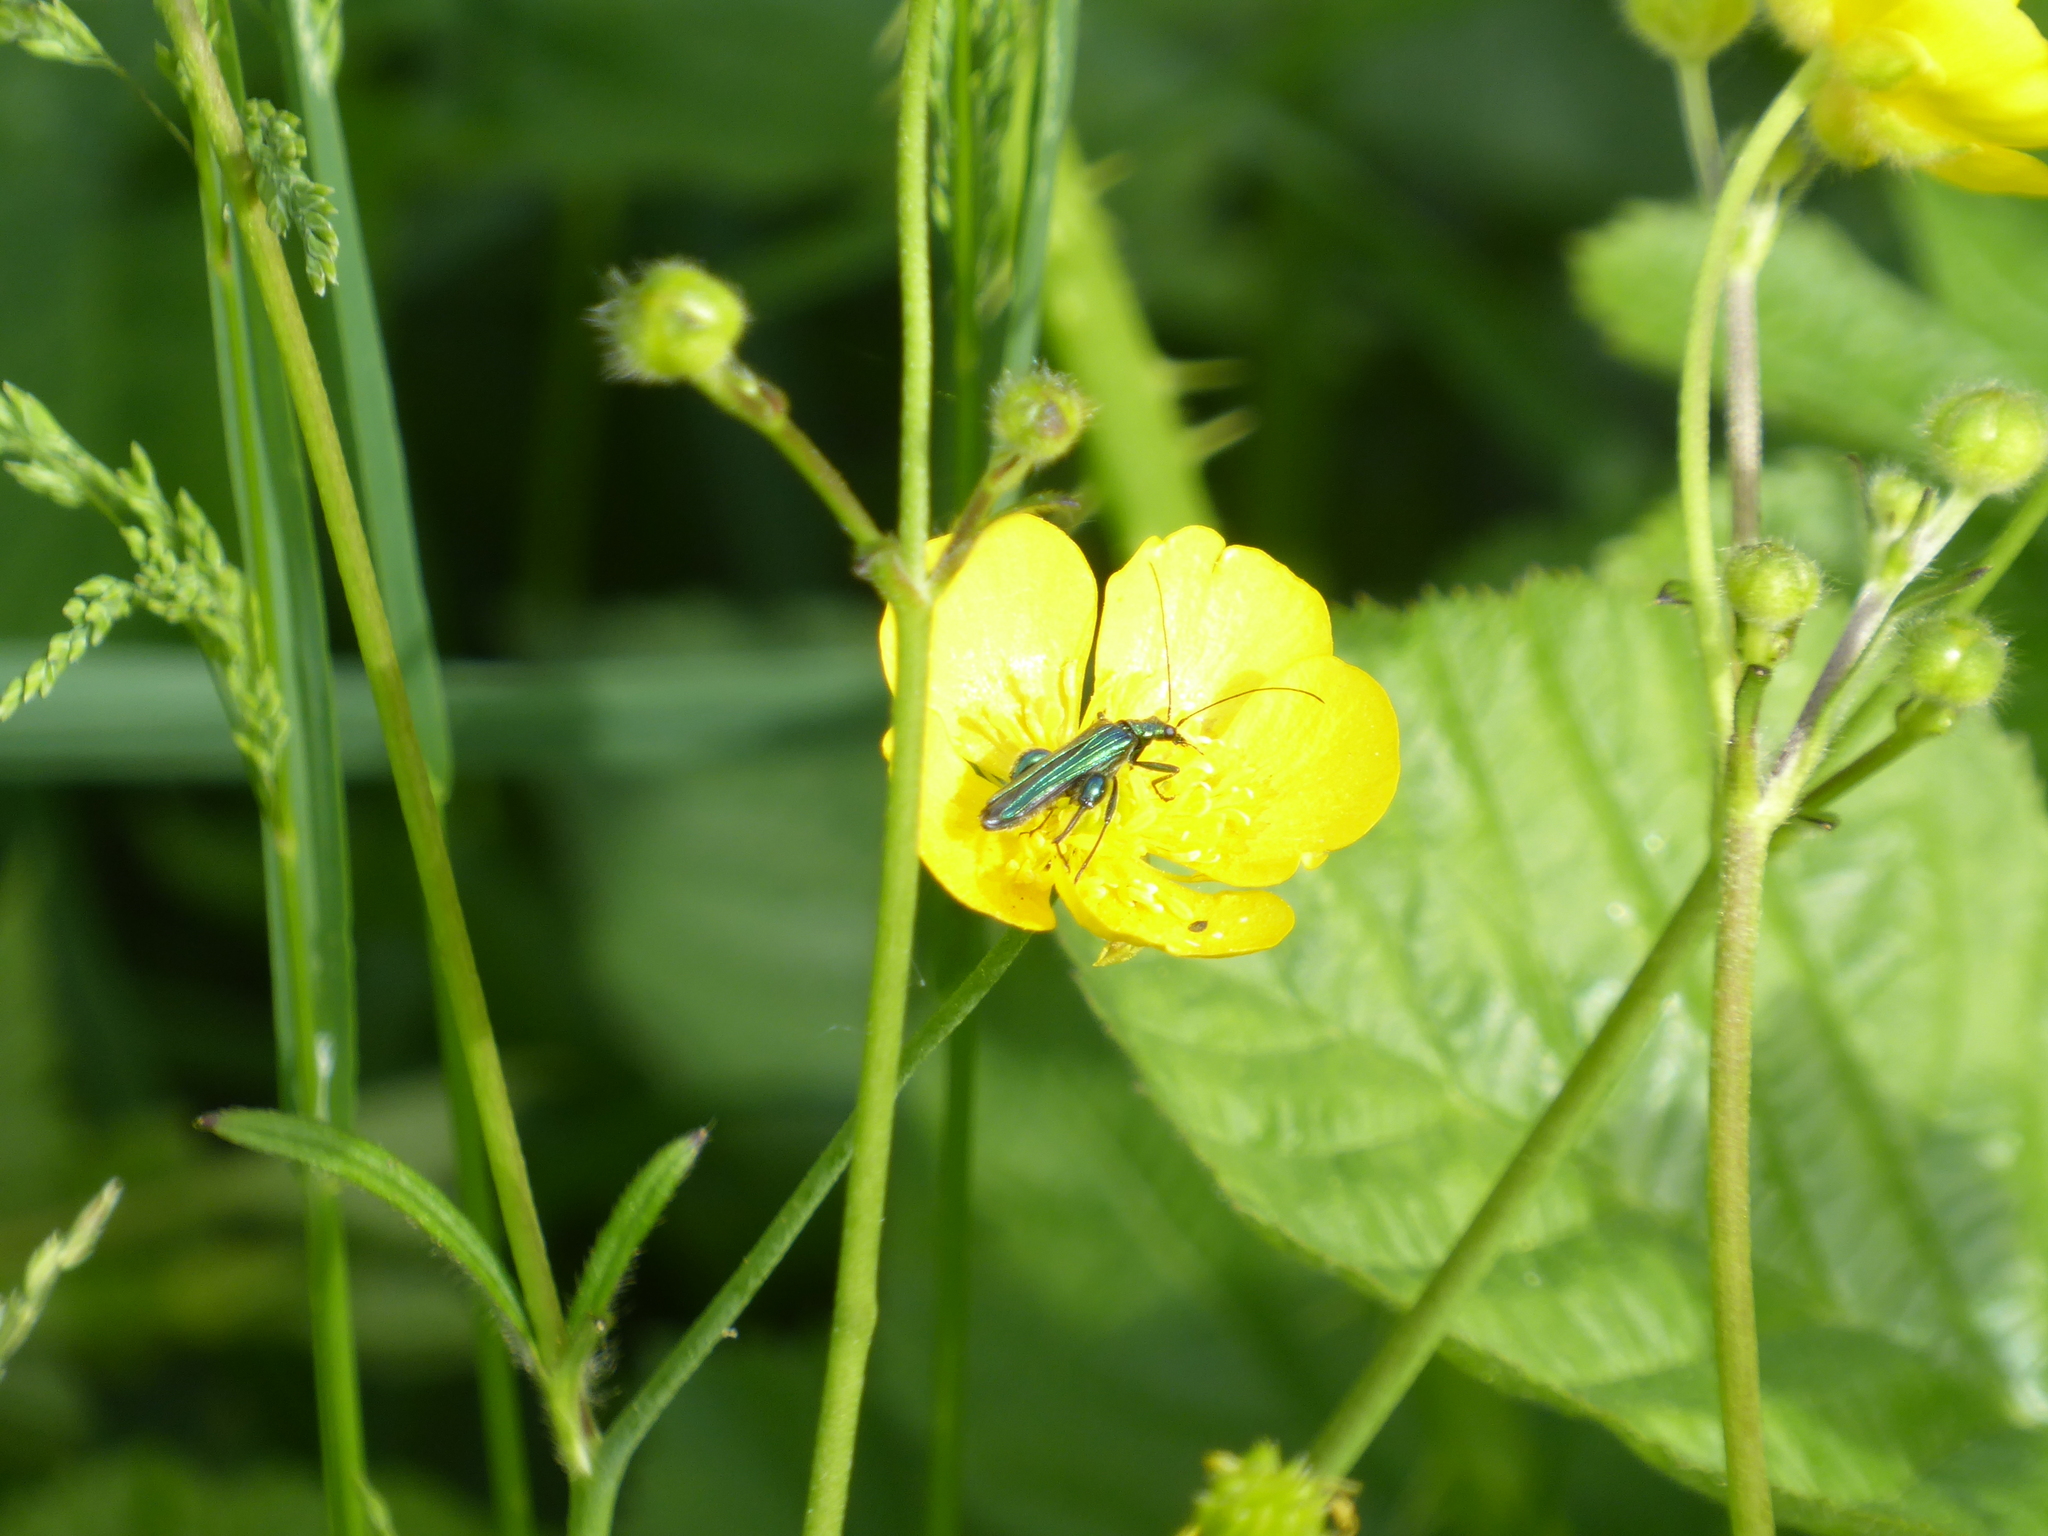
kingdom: Animalia
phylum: Arthropoda
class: Insecta
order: Coleoptera
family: Oedemeridae
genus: Oedemera
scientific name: Oedemera nobilis
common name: Swollen-thighed beetle
